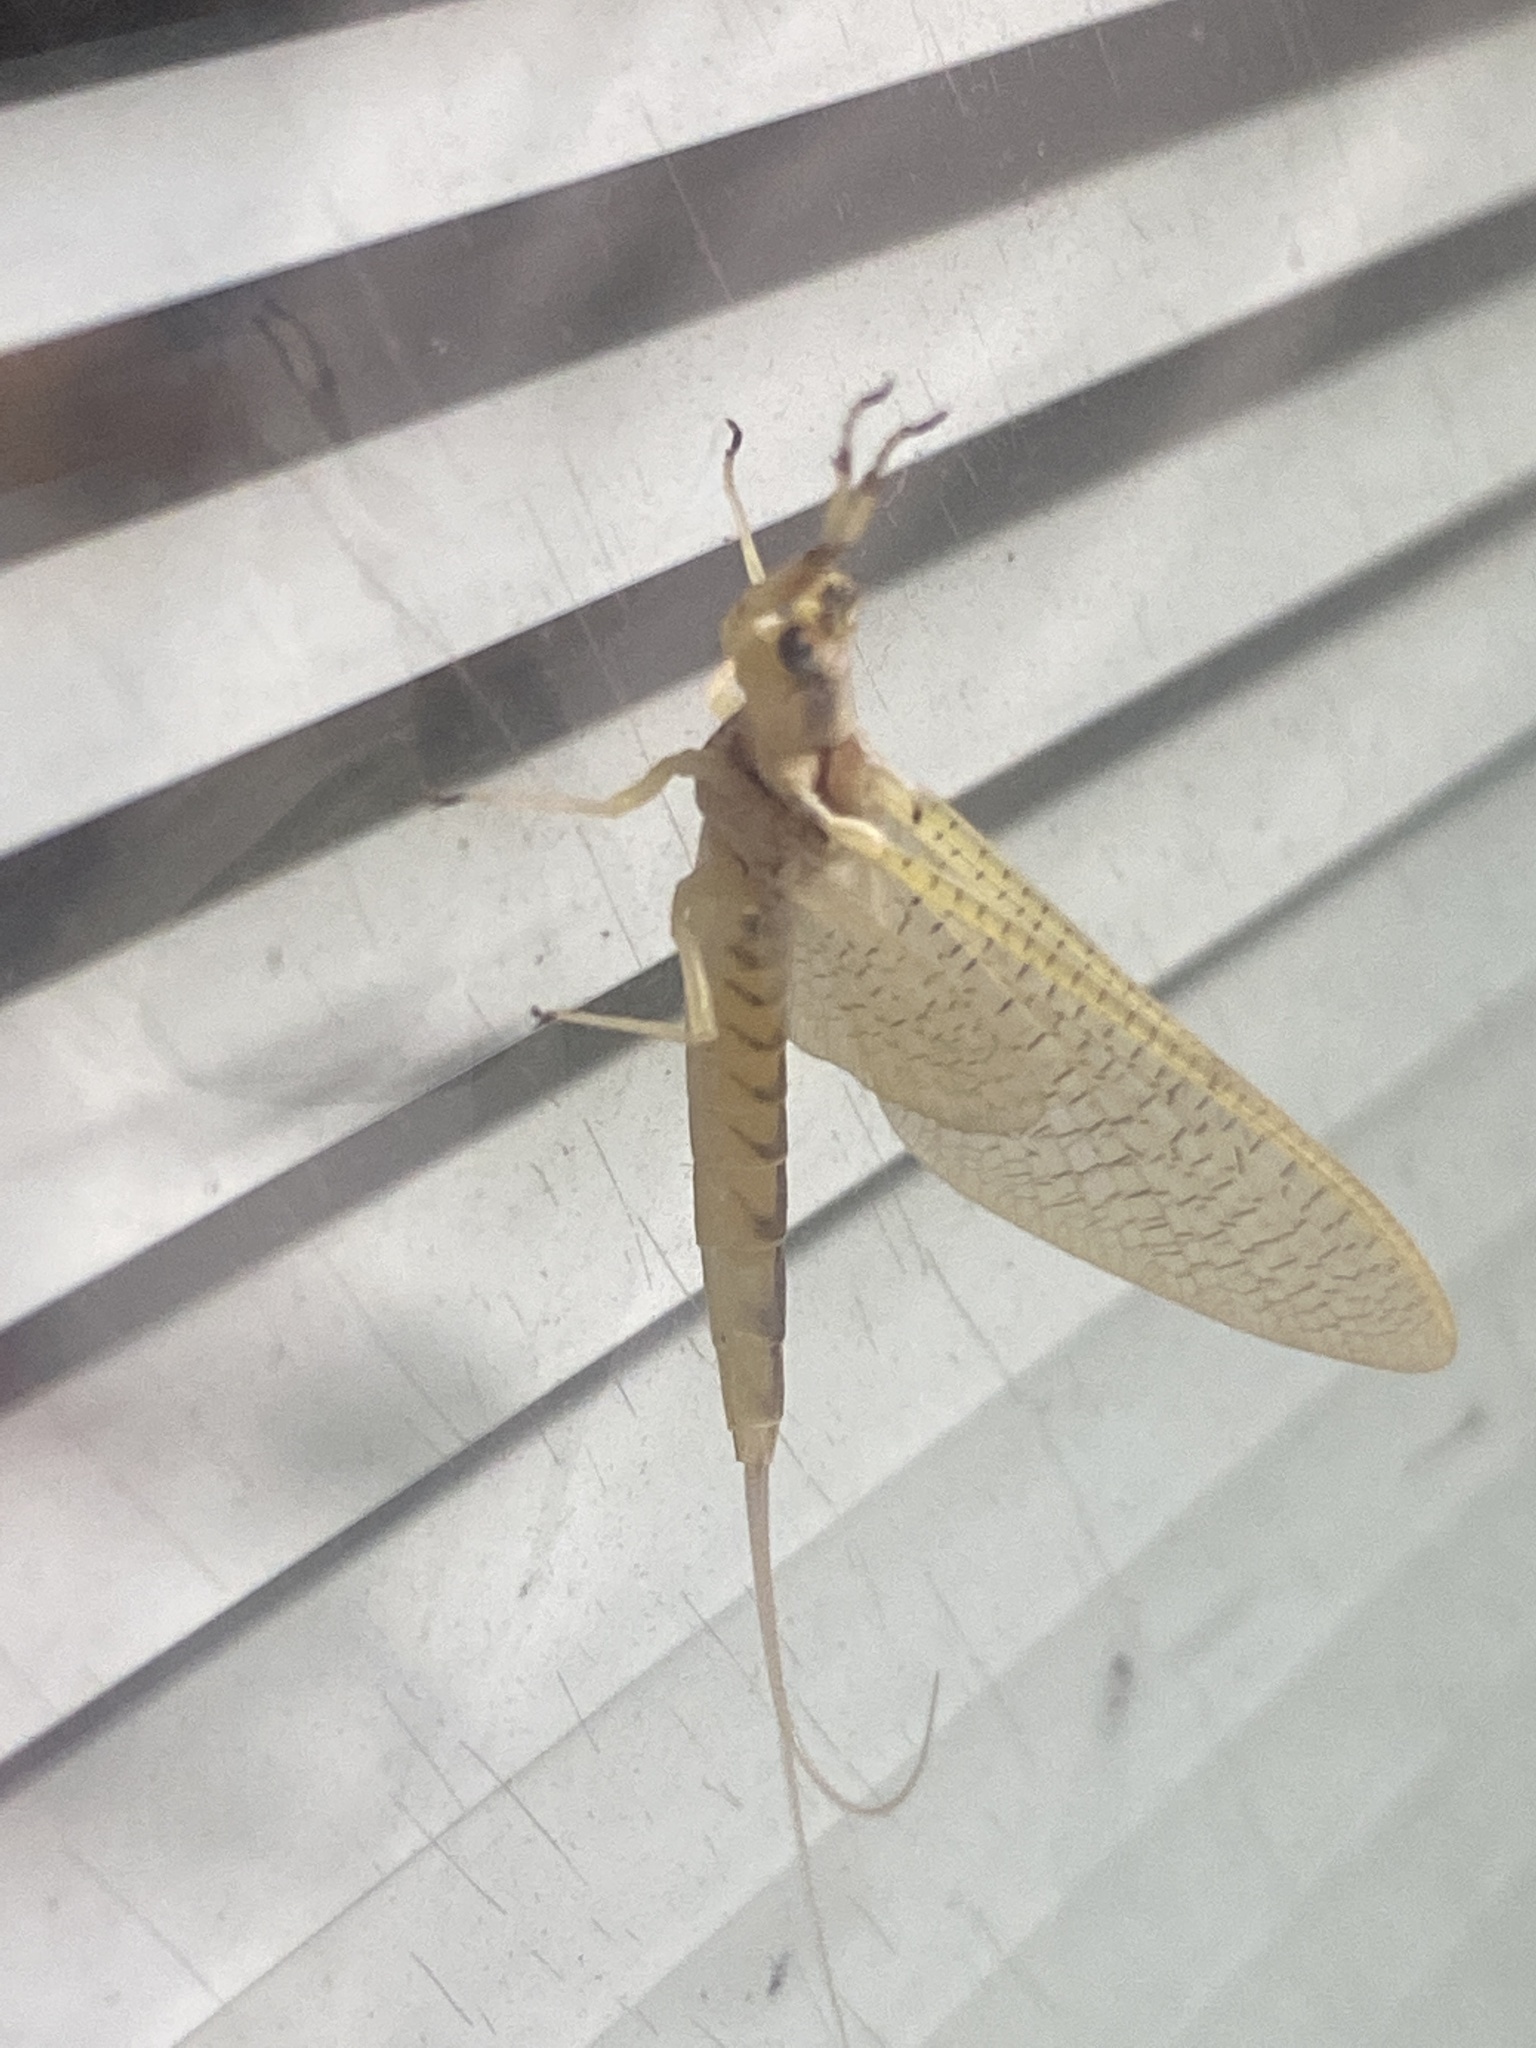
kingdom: Animalia
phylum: Arthropoda
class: Insecta
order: Ephemeroptera
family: Ephemeridae
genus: Hexagenia
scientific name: Hexagenia limbata
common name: Giant mayfly
